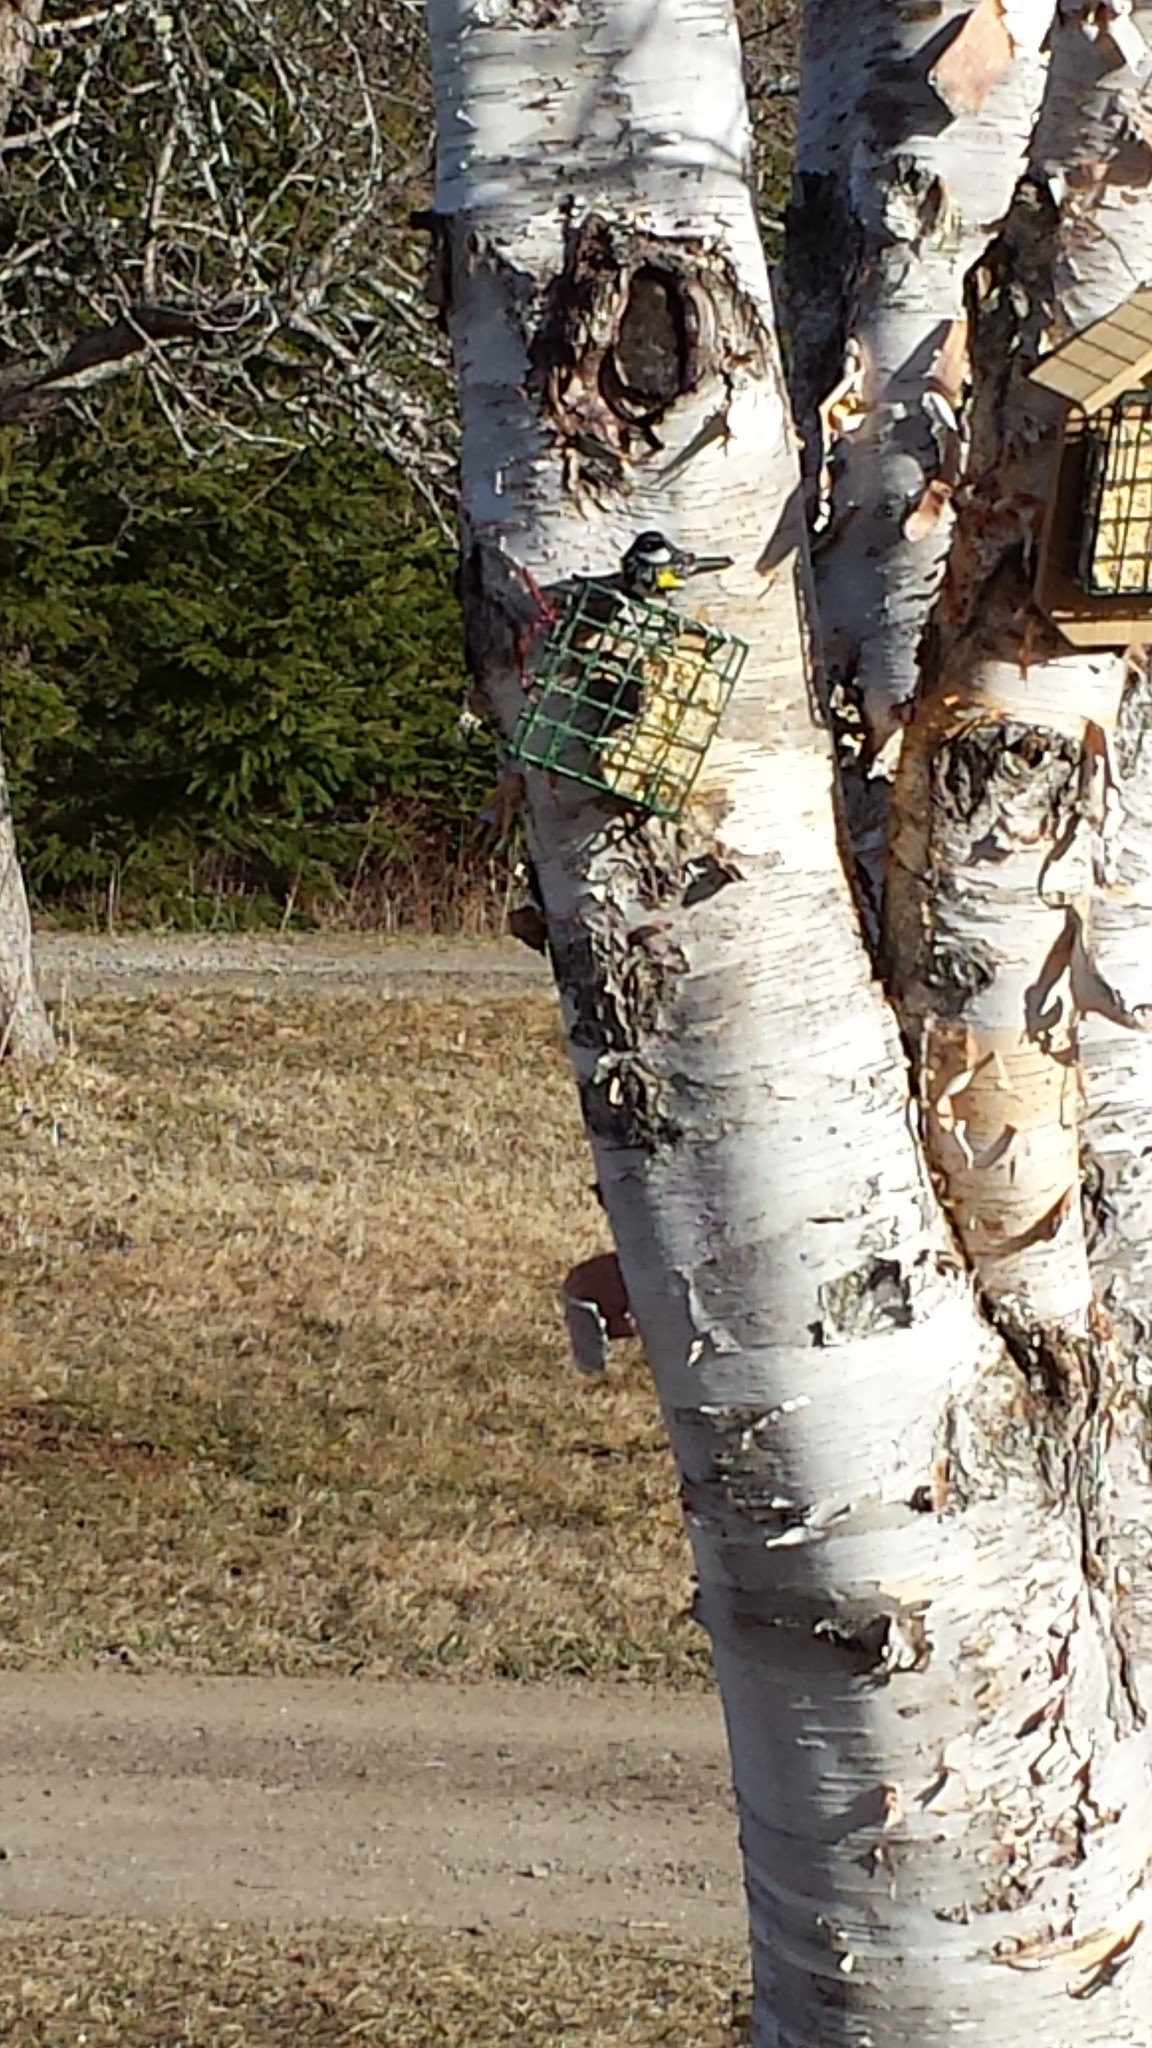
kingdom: Animalia
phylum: Chordata
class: Aves
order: Passeriformes
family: Parulidae
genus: Setophaga
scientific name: Setophaga coronata
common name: Myrtle warbler
